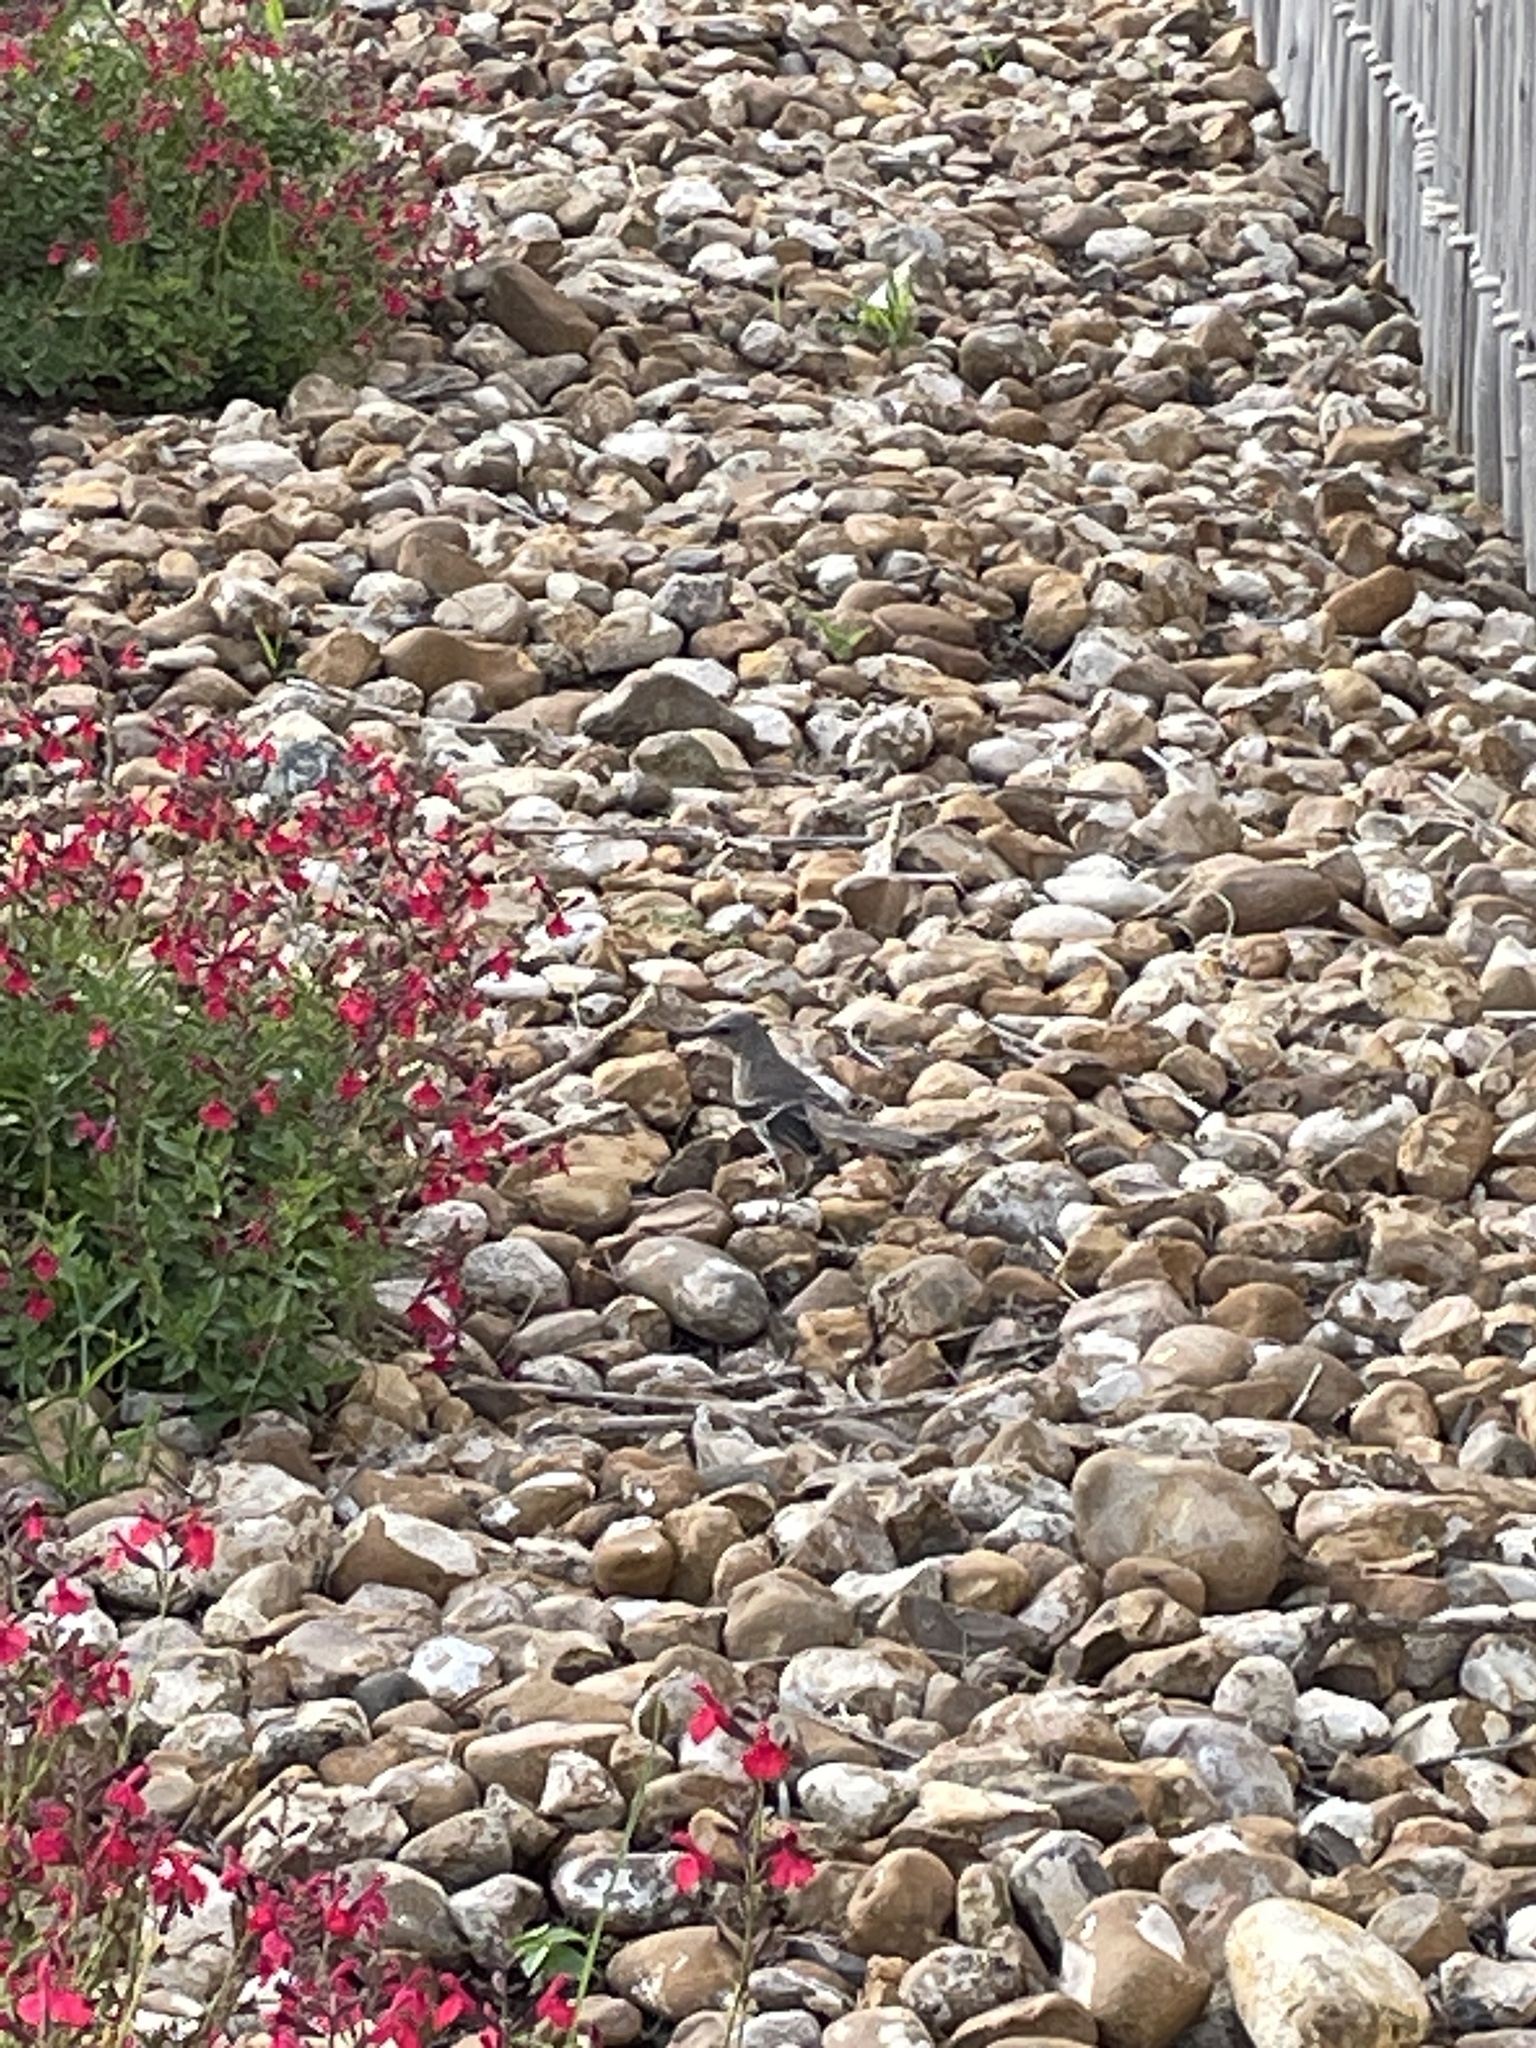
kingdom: Animalia
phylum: Chordata
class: Aves
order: Passeriformes
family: Mimidae
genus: Mimus
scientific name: Mimus polyglottos
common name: Northern mockingbird
